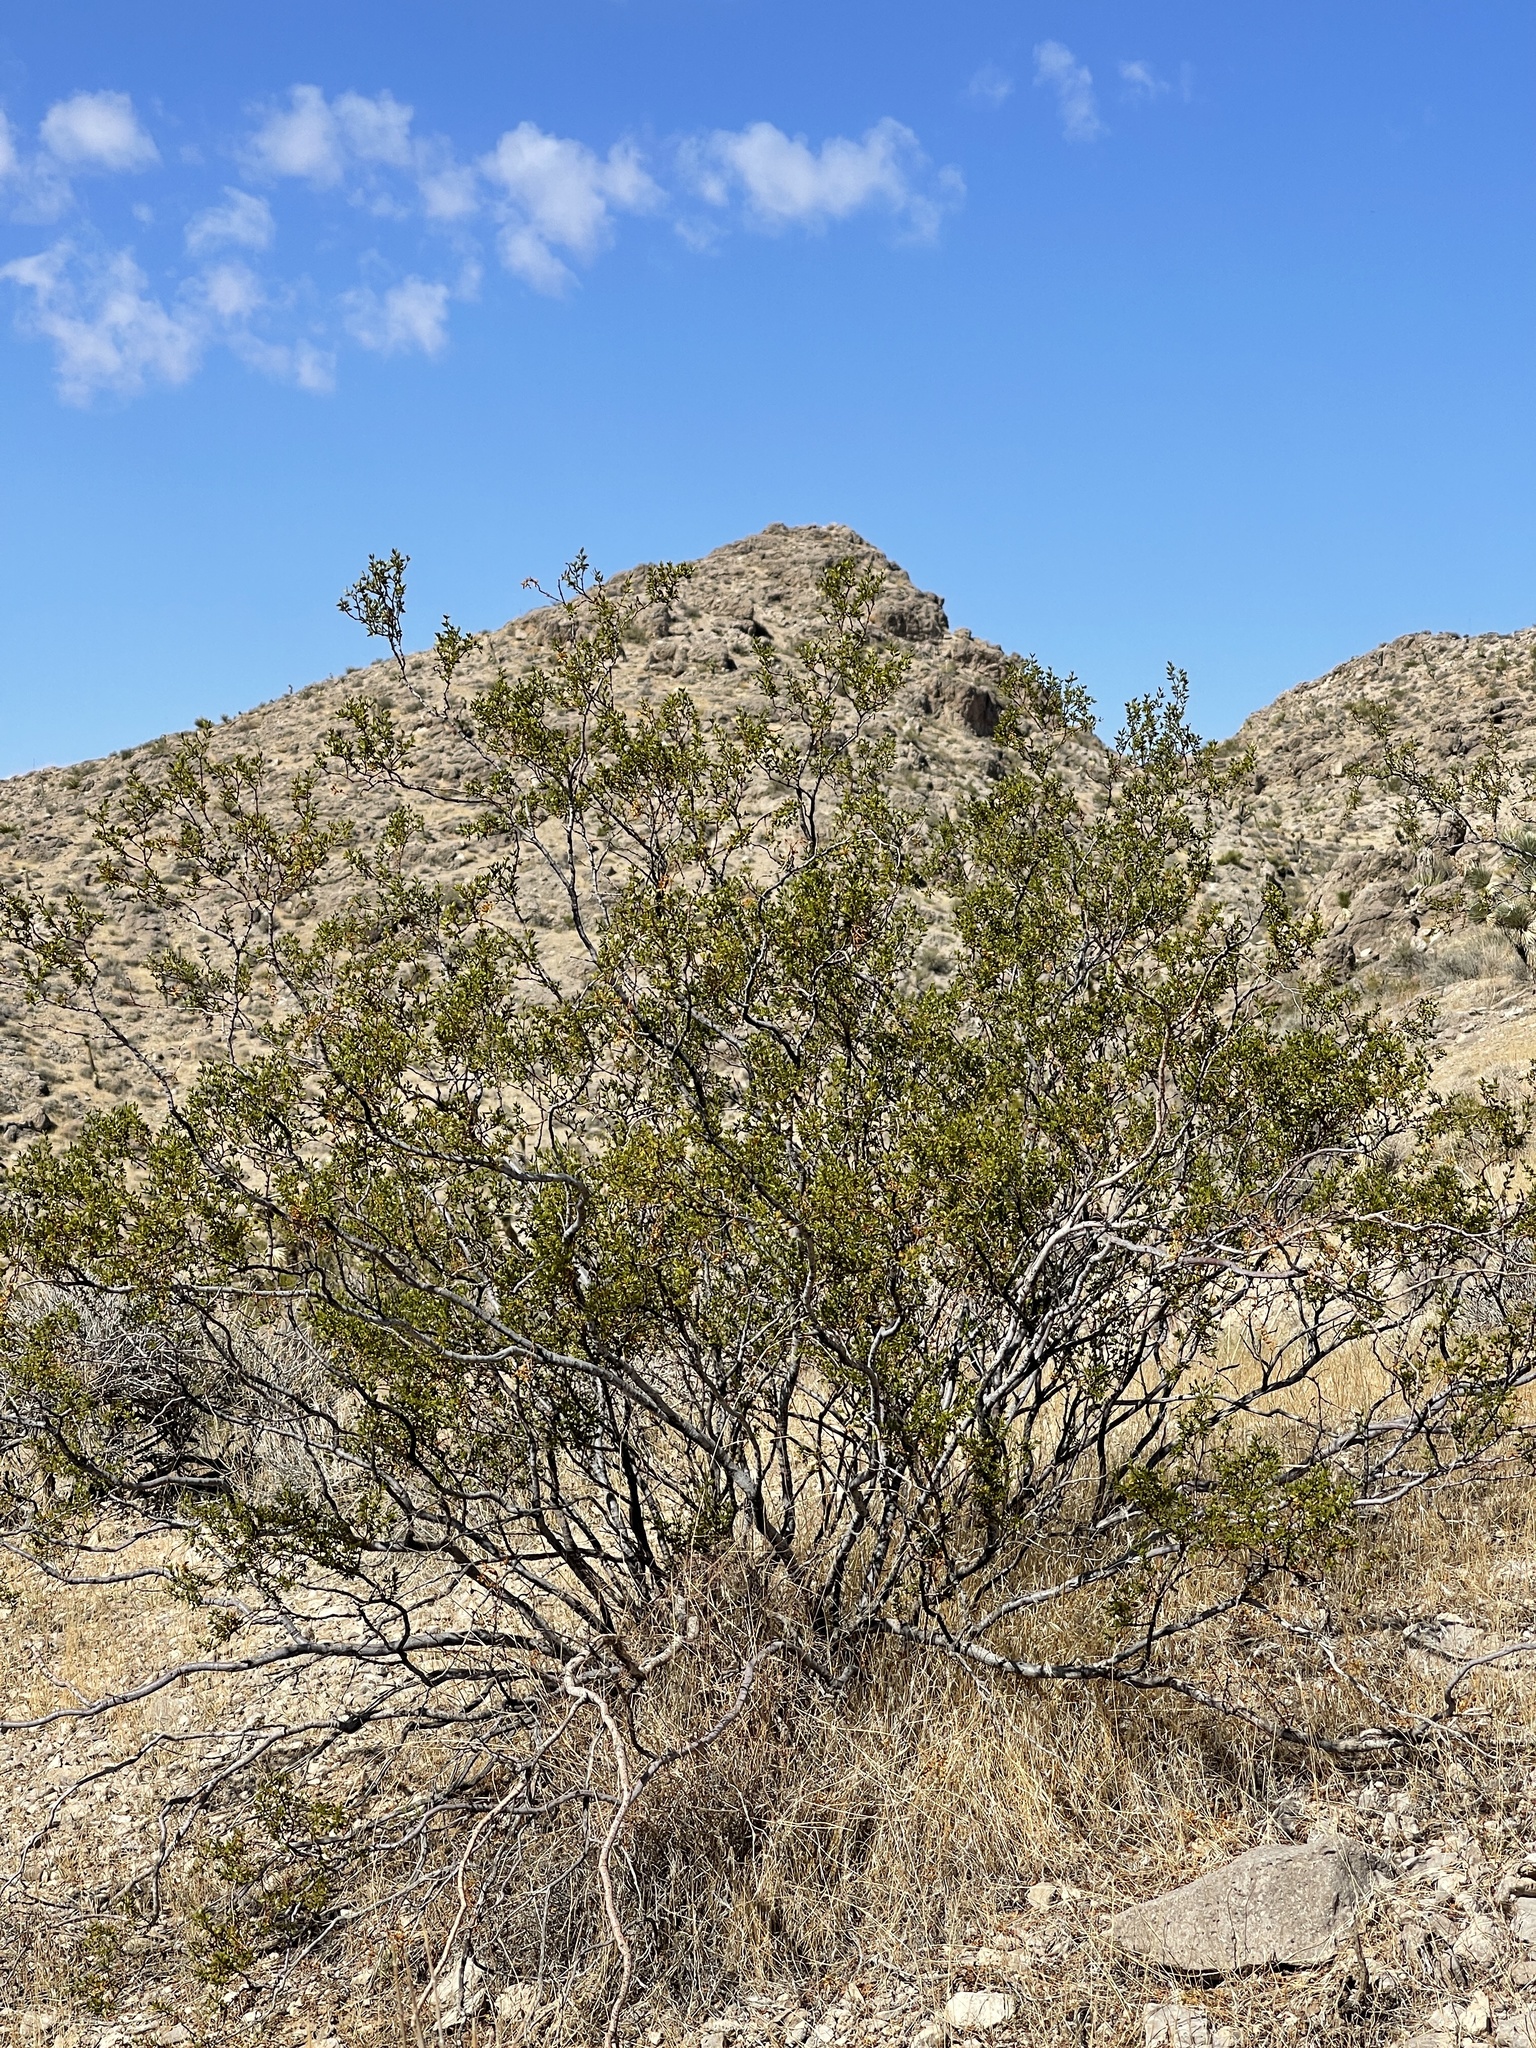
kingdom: Plantae
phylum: Tracheophyta
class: Magnoliopsida
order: Zygophyllales
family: Zygophyllaceae
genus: Larrea
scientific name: Larrea tridentata
